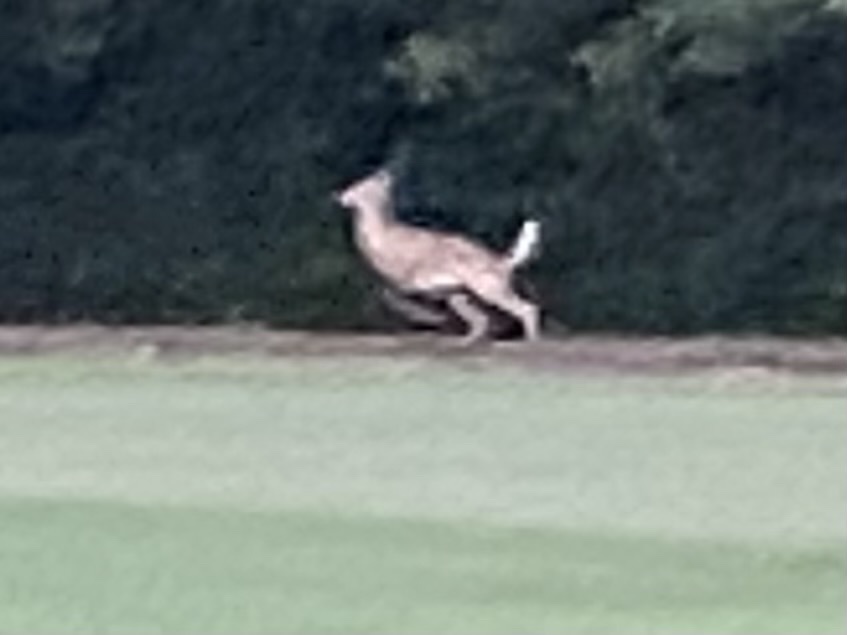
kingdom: Animalia
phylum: Chordata
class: Mammalia
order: Artiodactyla
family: Cervidae
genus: Odocoileus
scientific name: Odocoileus virginianus
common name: White-tailed deer
